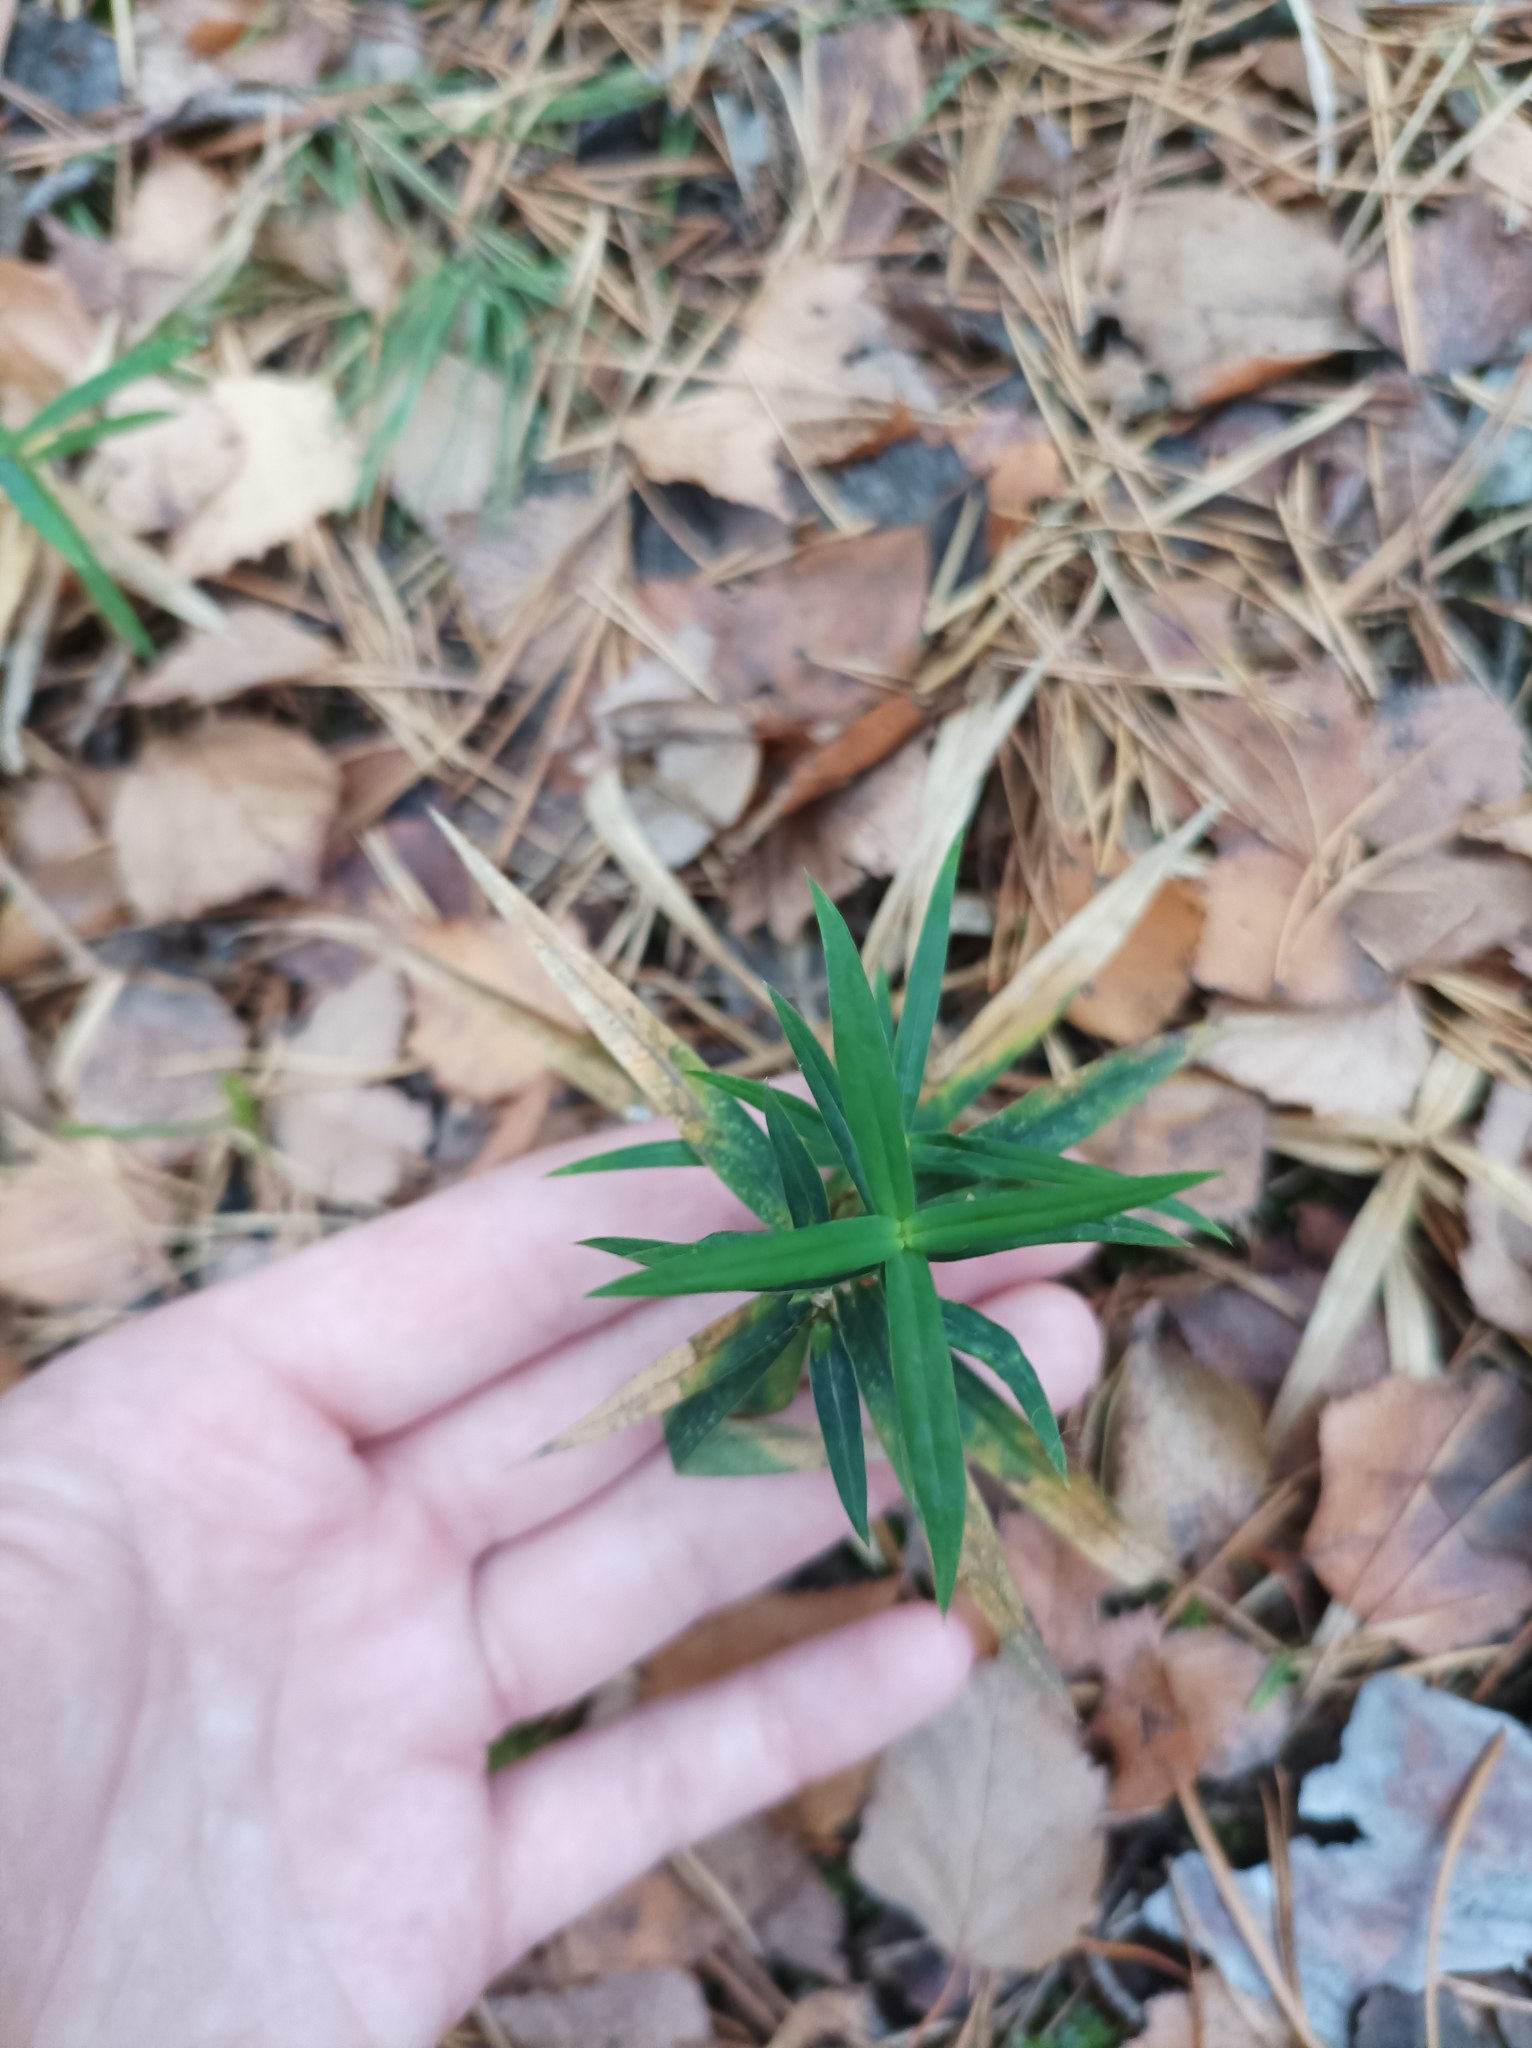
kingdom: Plantae
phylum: Tracheophyta
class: Magnoliopsida
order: Caryophyllales
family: Caryophyllaceae
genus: Rabelera
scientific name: Rabelera holostea
